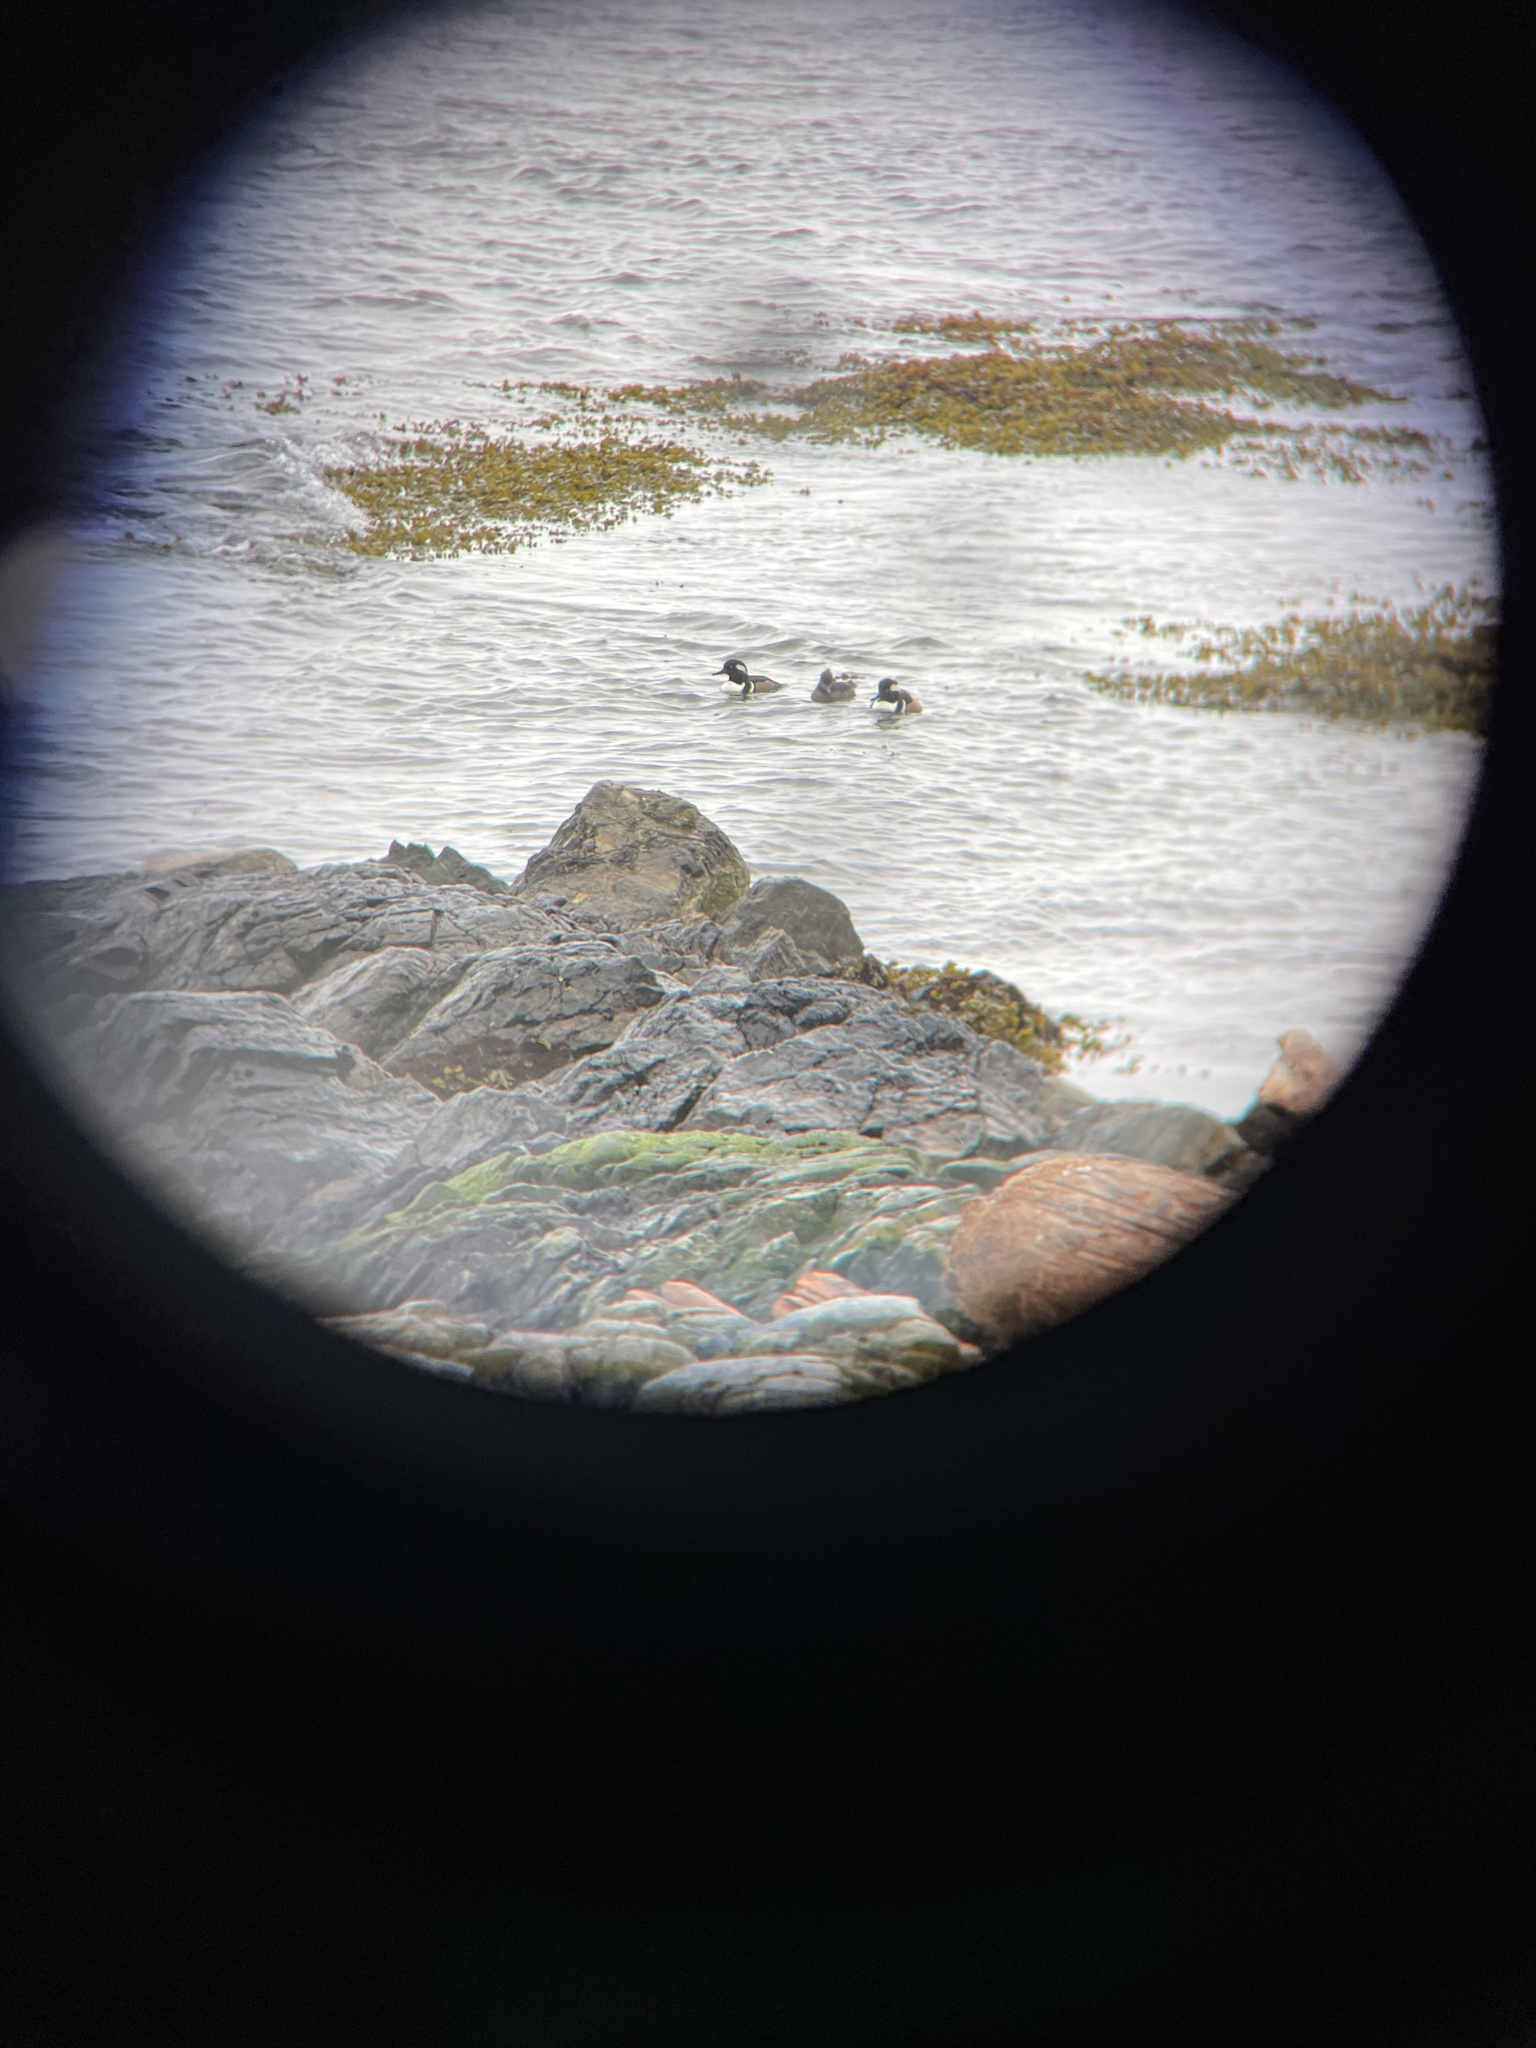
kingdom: Animalia
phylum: Chordata
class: Aves
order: Anseriformes
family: Anatidae
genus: Lophodytes
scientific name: Lophodytes cucullatus
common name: Hooded merganser
